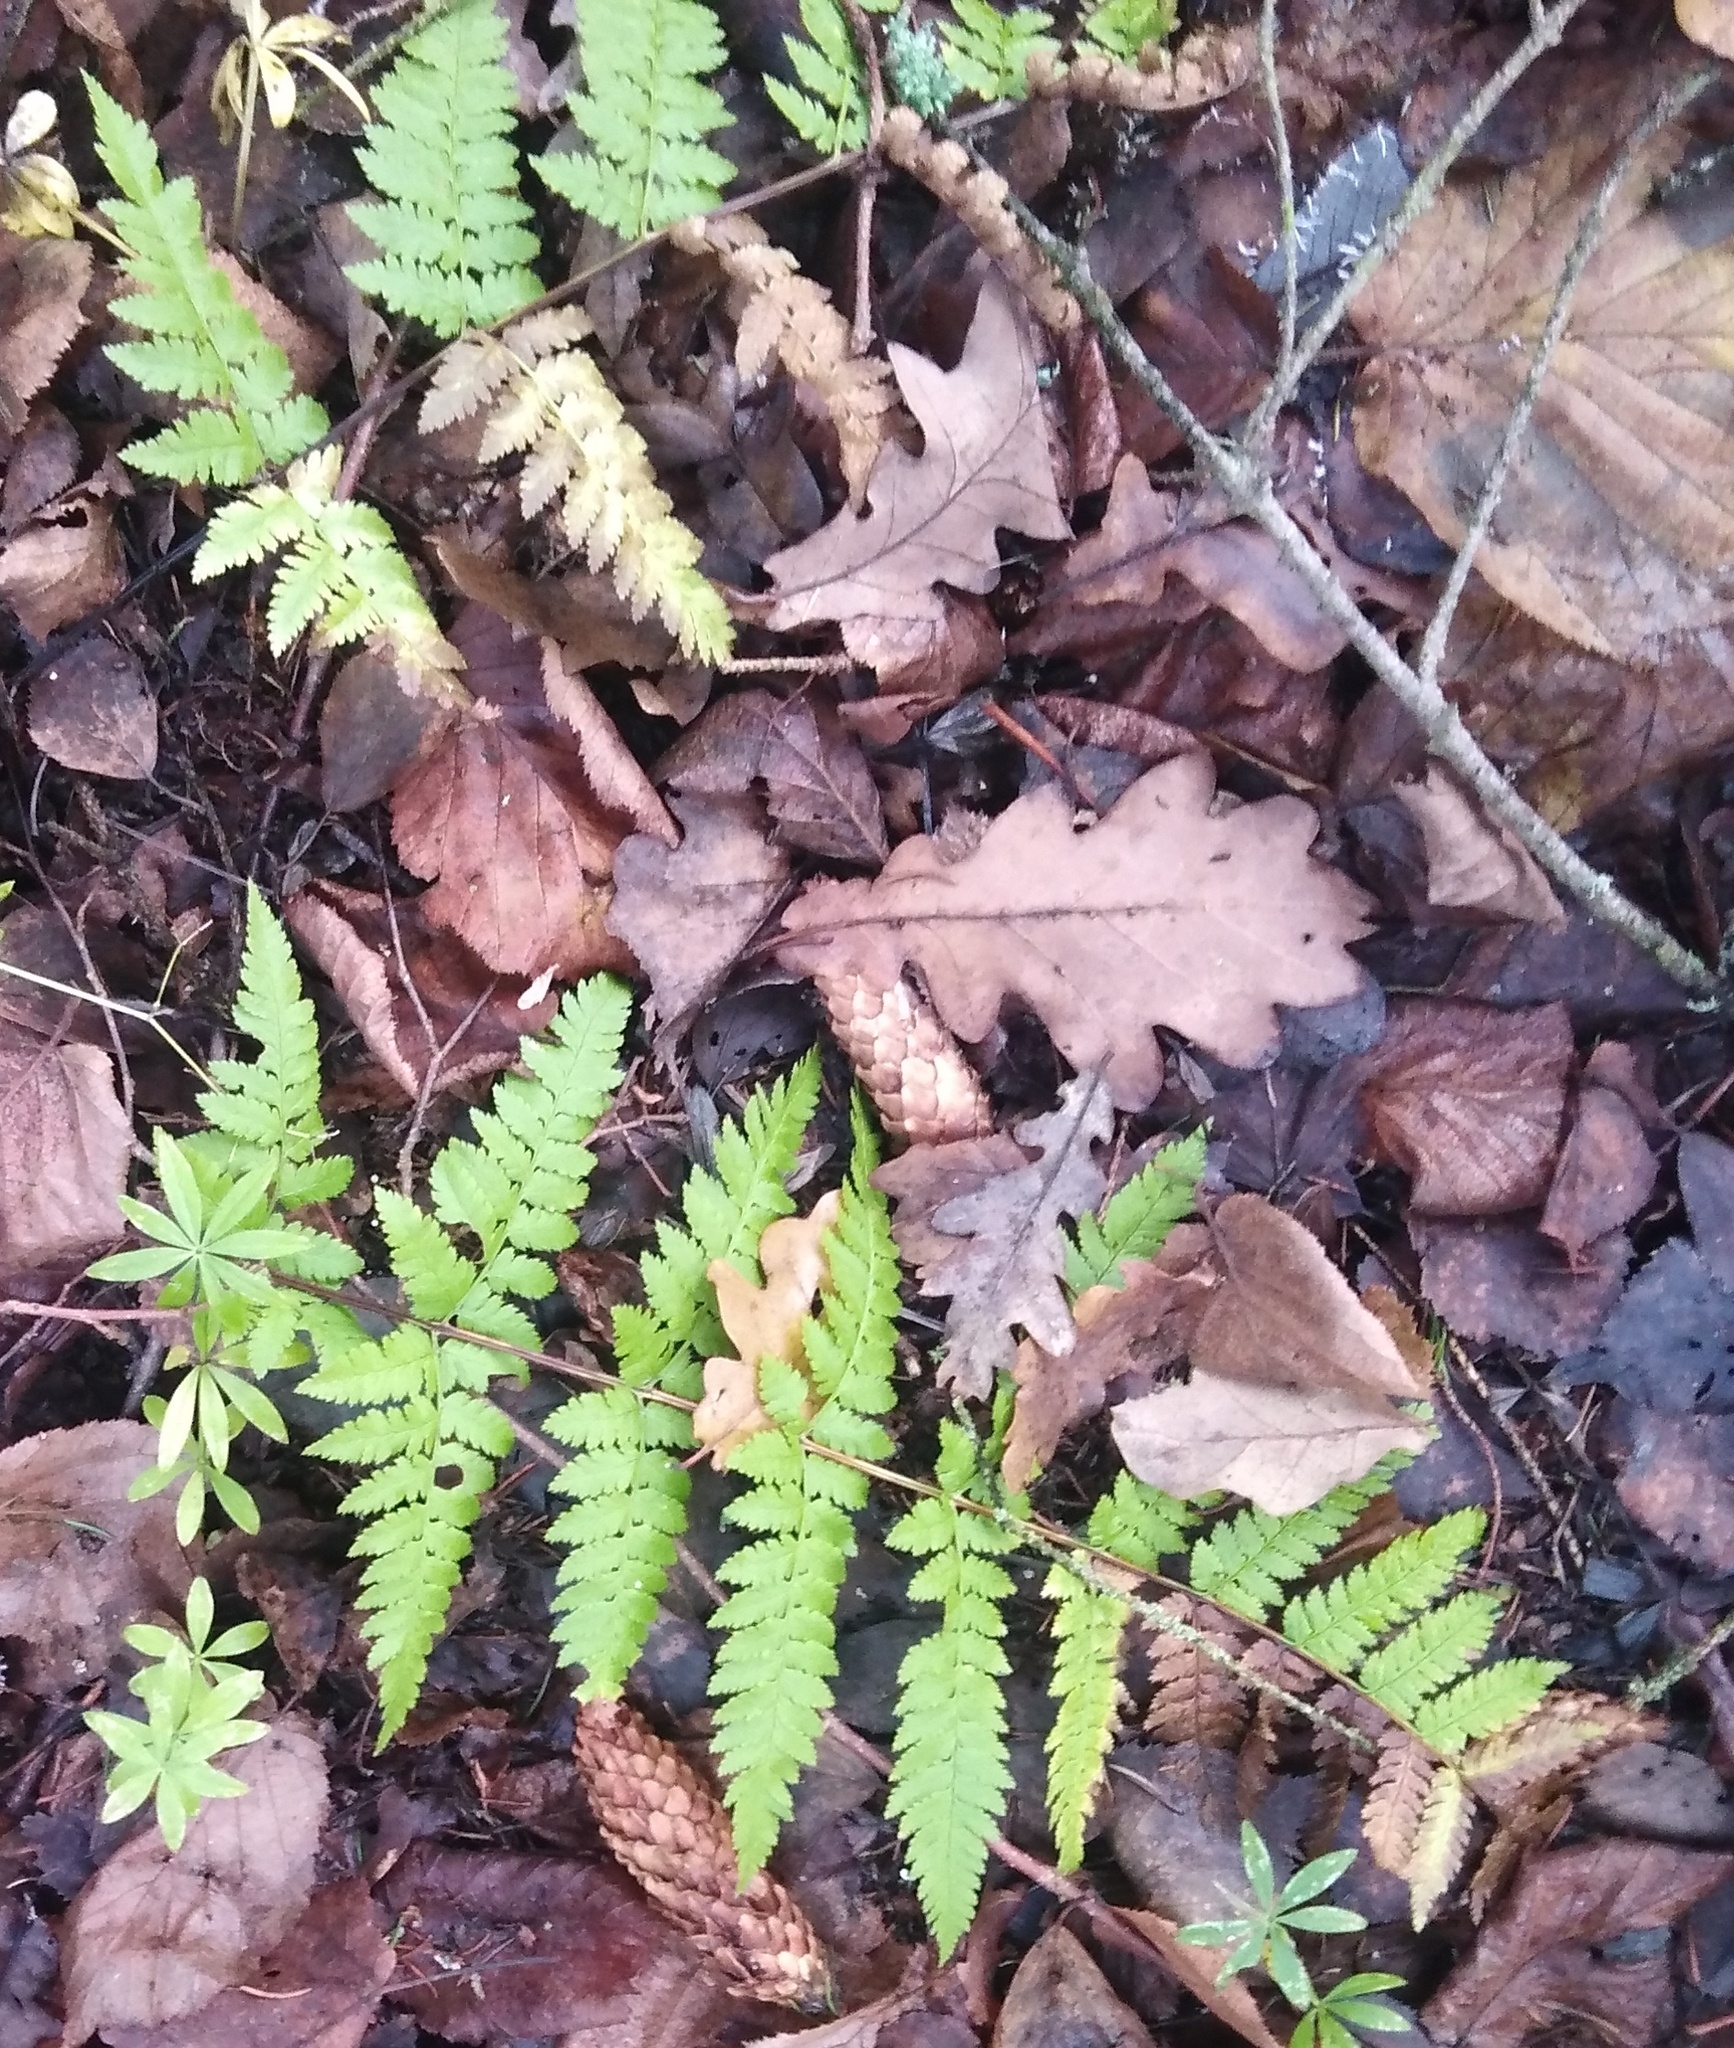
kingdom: Plantae
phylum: Tracheophyta
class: Polypodiopsida
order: Polypodiales
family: Dryopteridaceae
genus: Dryopteris
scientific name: Dryopteris carthusiana
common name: Narrow buckler-fern
